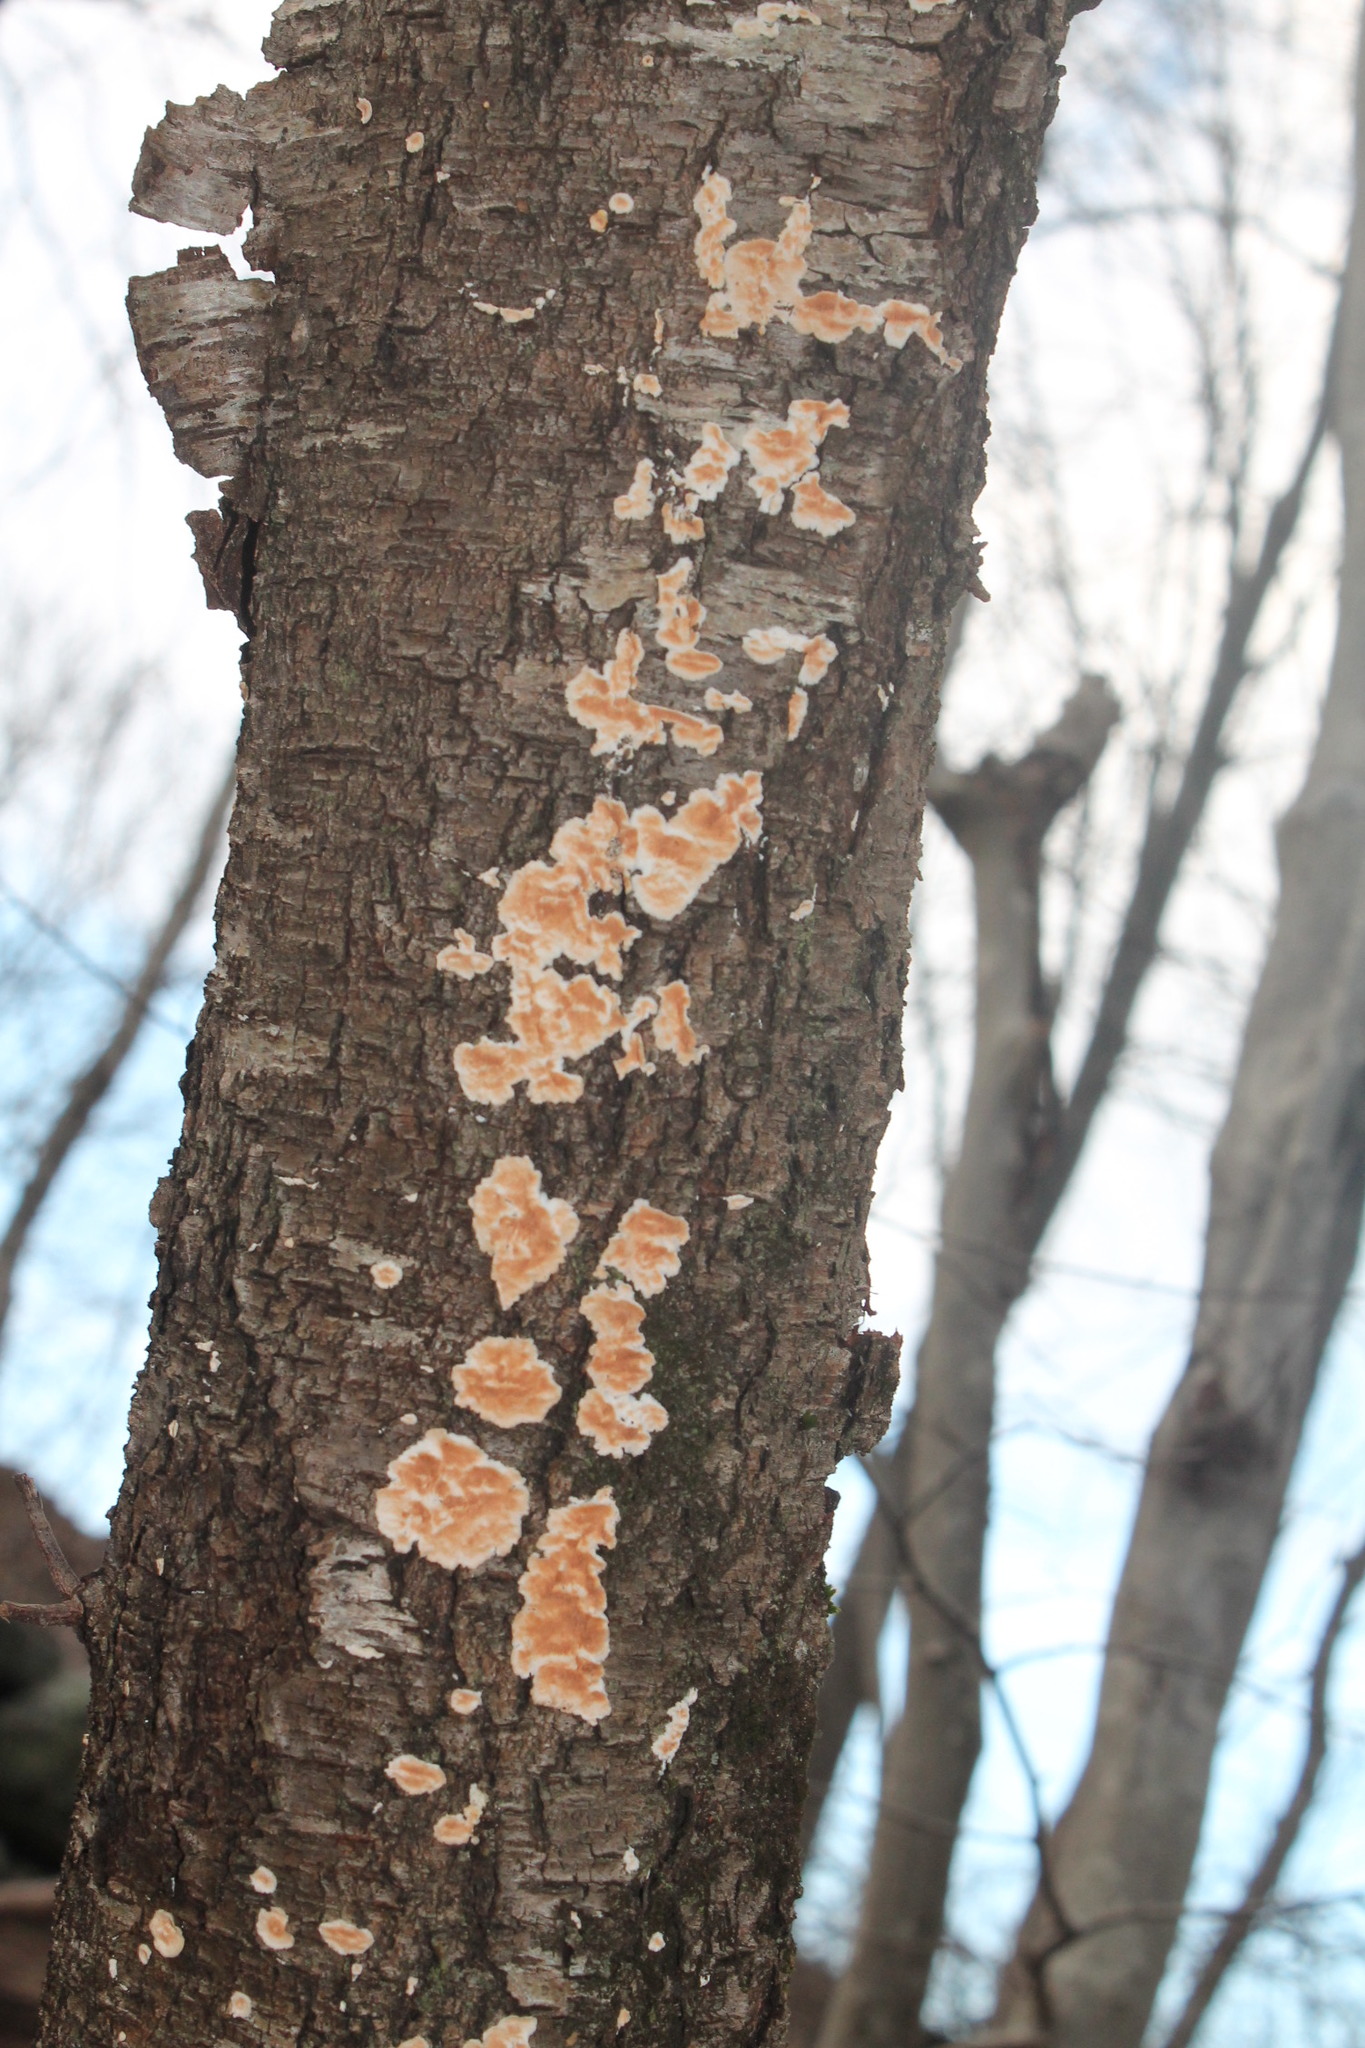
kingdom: Fungi
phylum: Basidiomycota
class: Agaricomycetes
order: Polyporales
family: Steccherinaceae
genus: Steccherinum
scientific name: Steccherinum ochraceum
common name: Ochre spreading tooth
